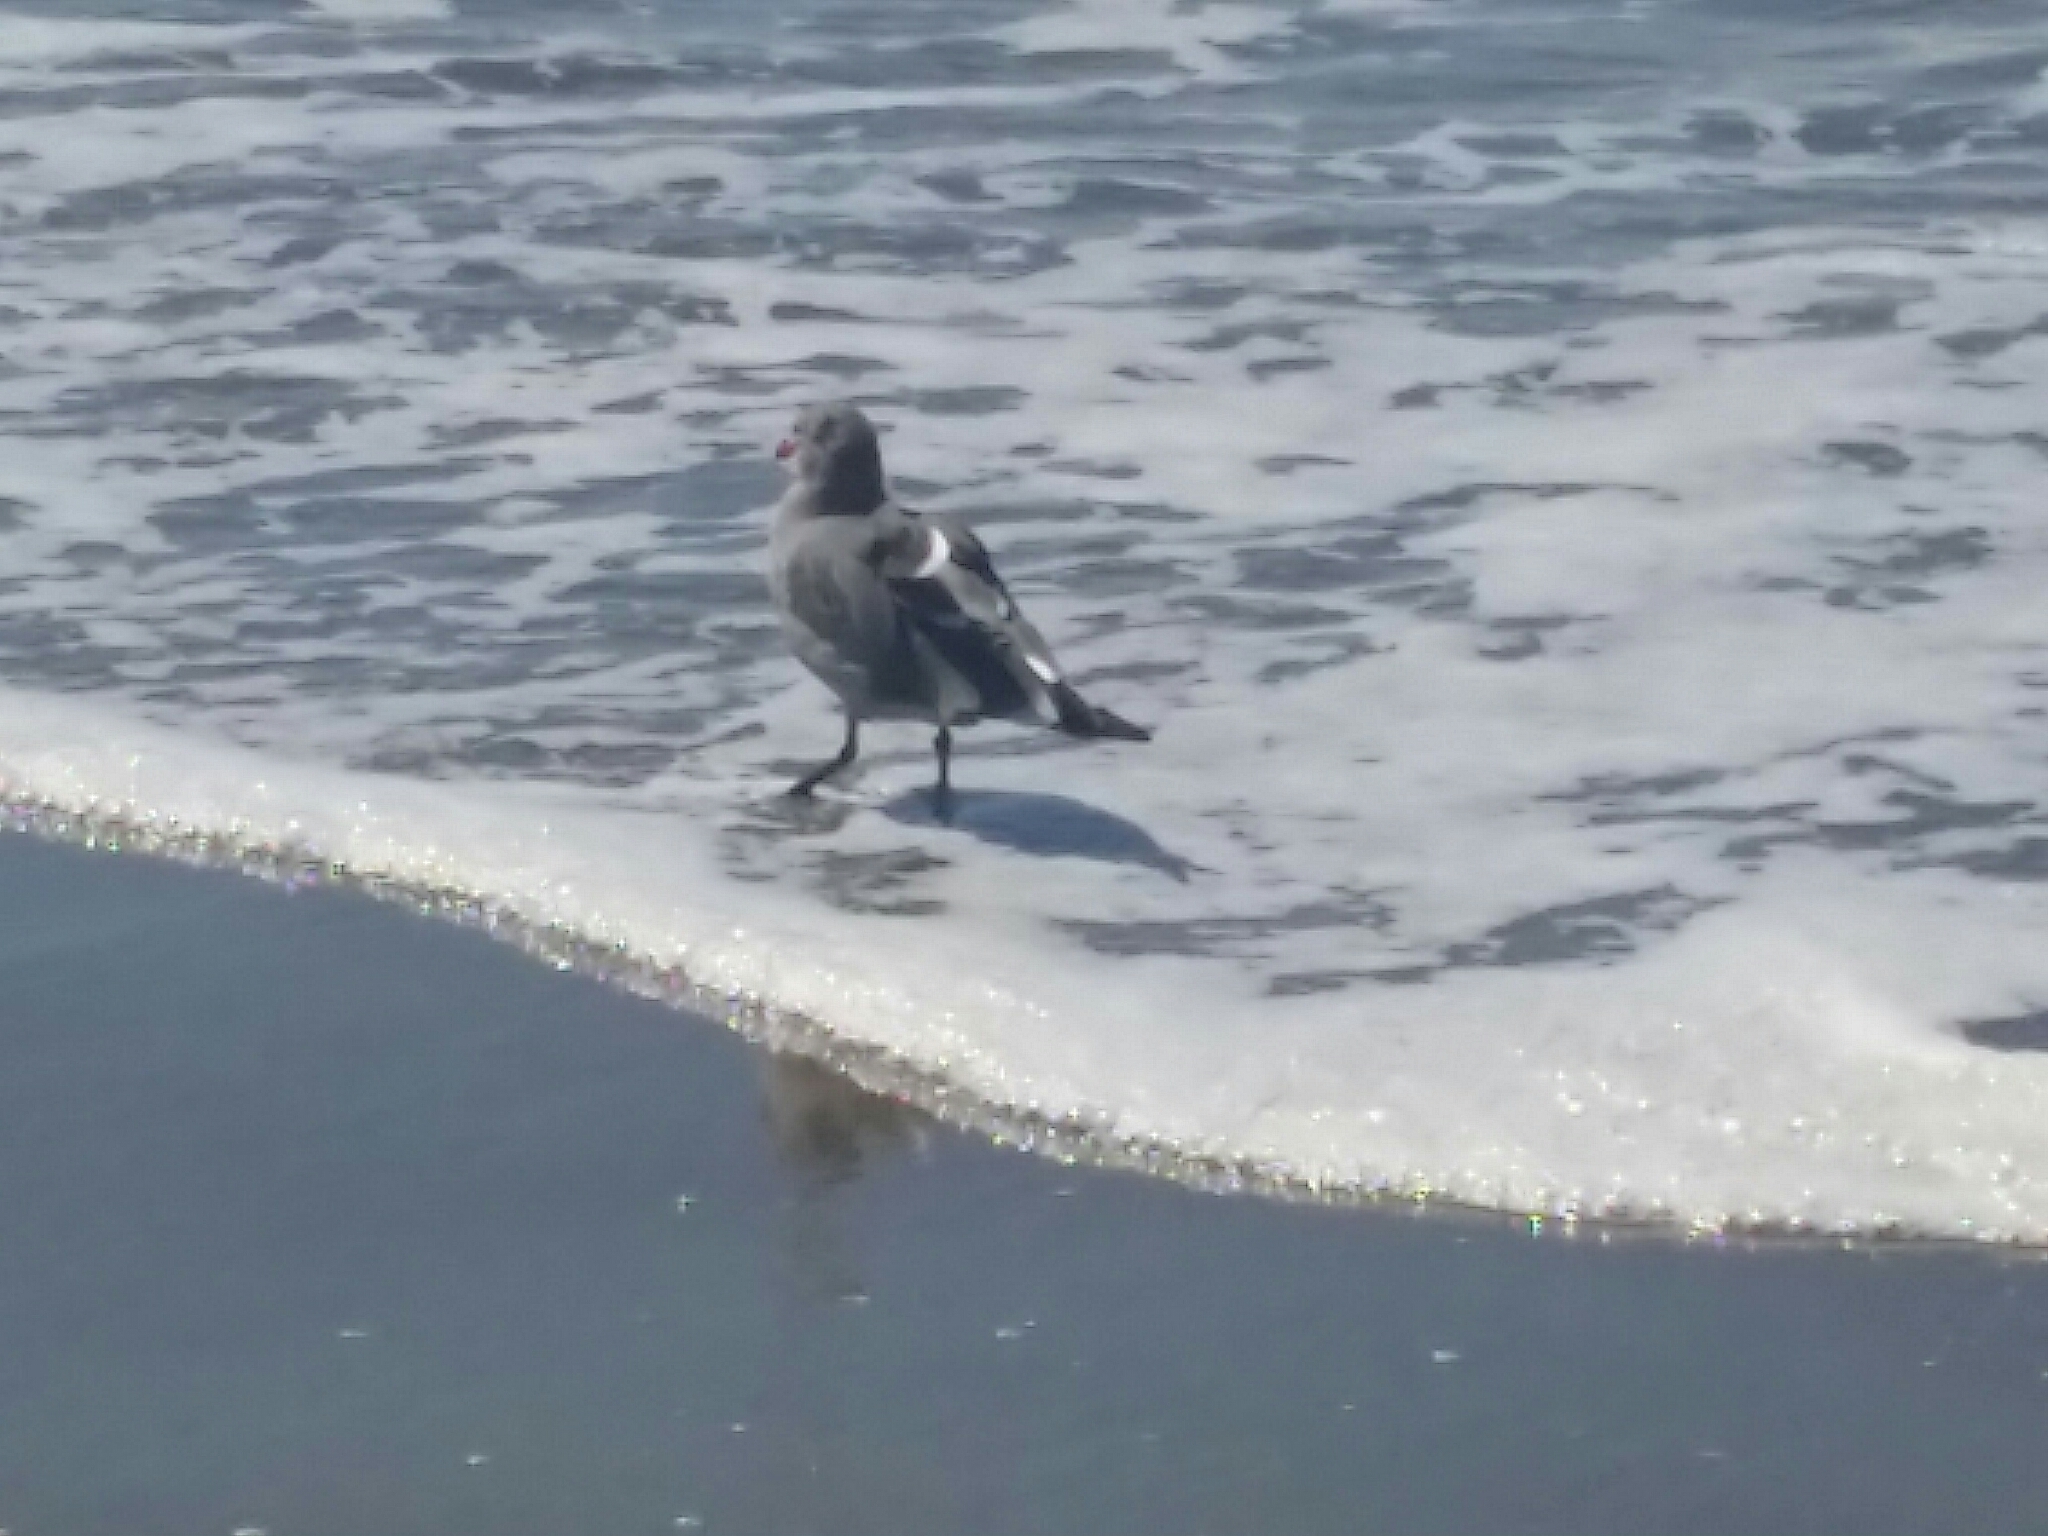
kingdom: Animalia
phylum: Chordata
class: Aves
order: Charadriiformes
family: Laridae
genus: Larus
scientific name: Larus heermanni
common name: Heermann's gull
